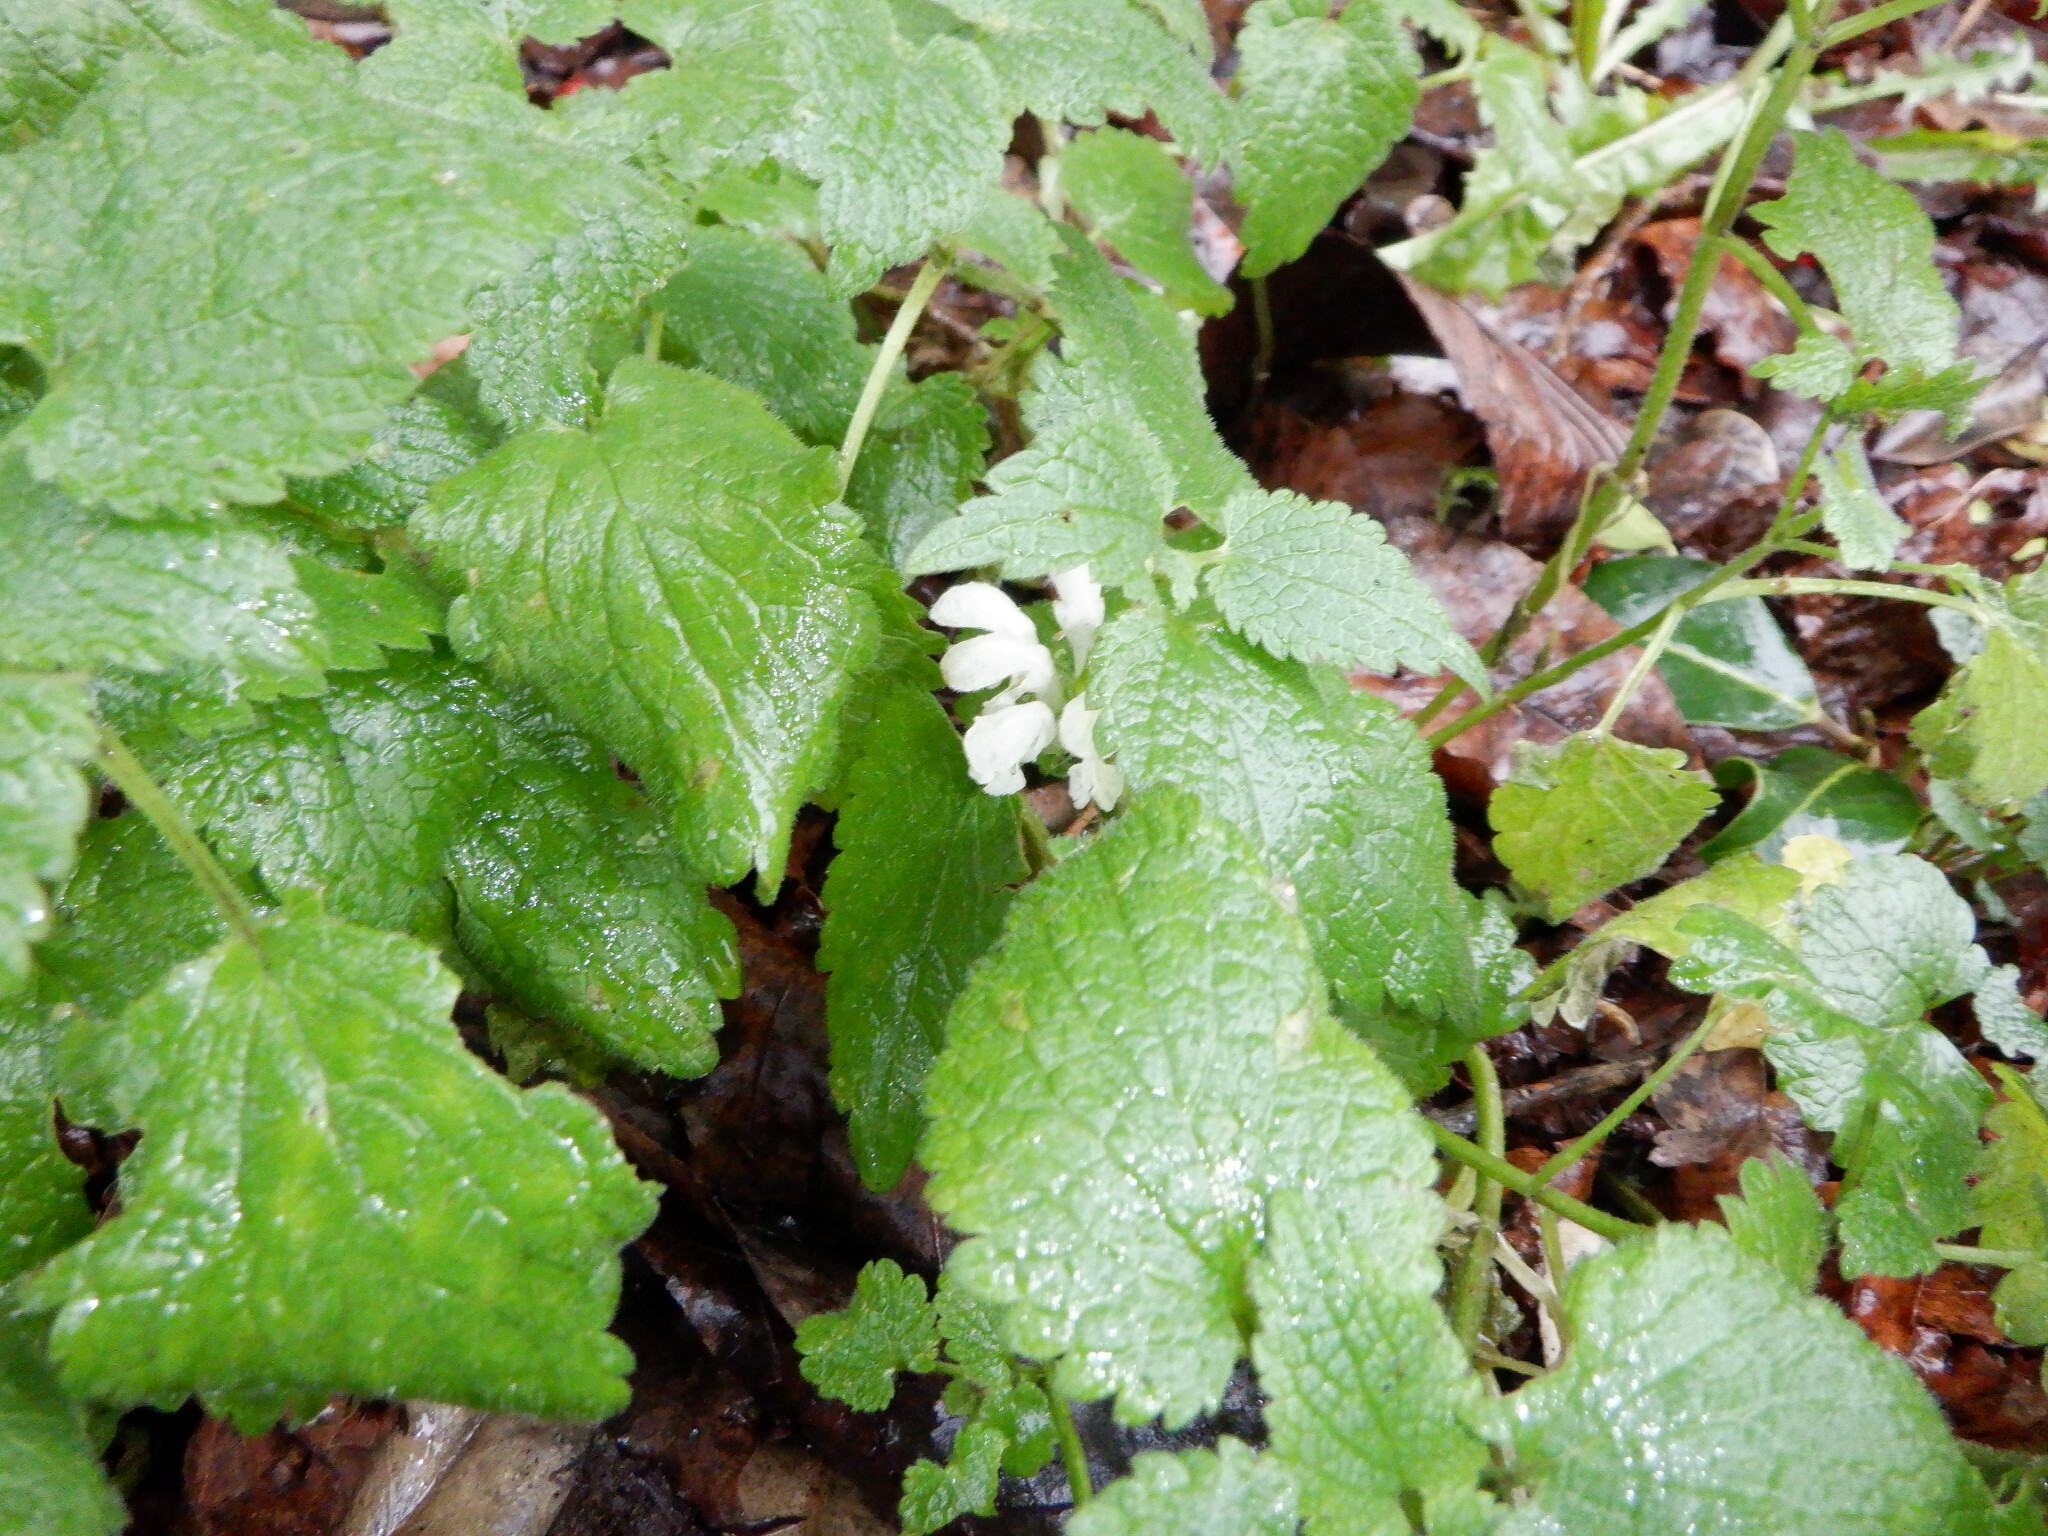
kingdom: Plantae
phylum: Tracheophyta
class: Magnoliopsida
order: Lamiales
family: Lamiaceae
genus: Lamium
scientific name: Lamium album
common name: White dead-nettle
